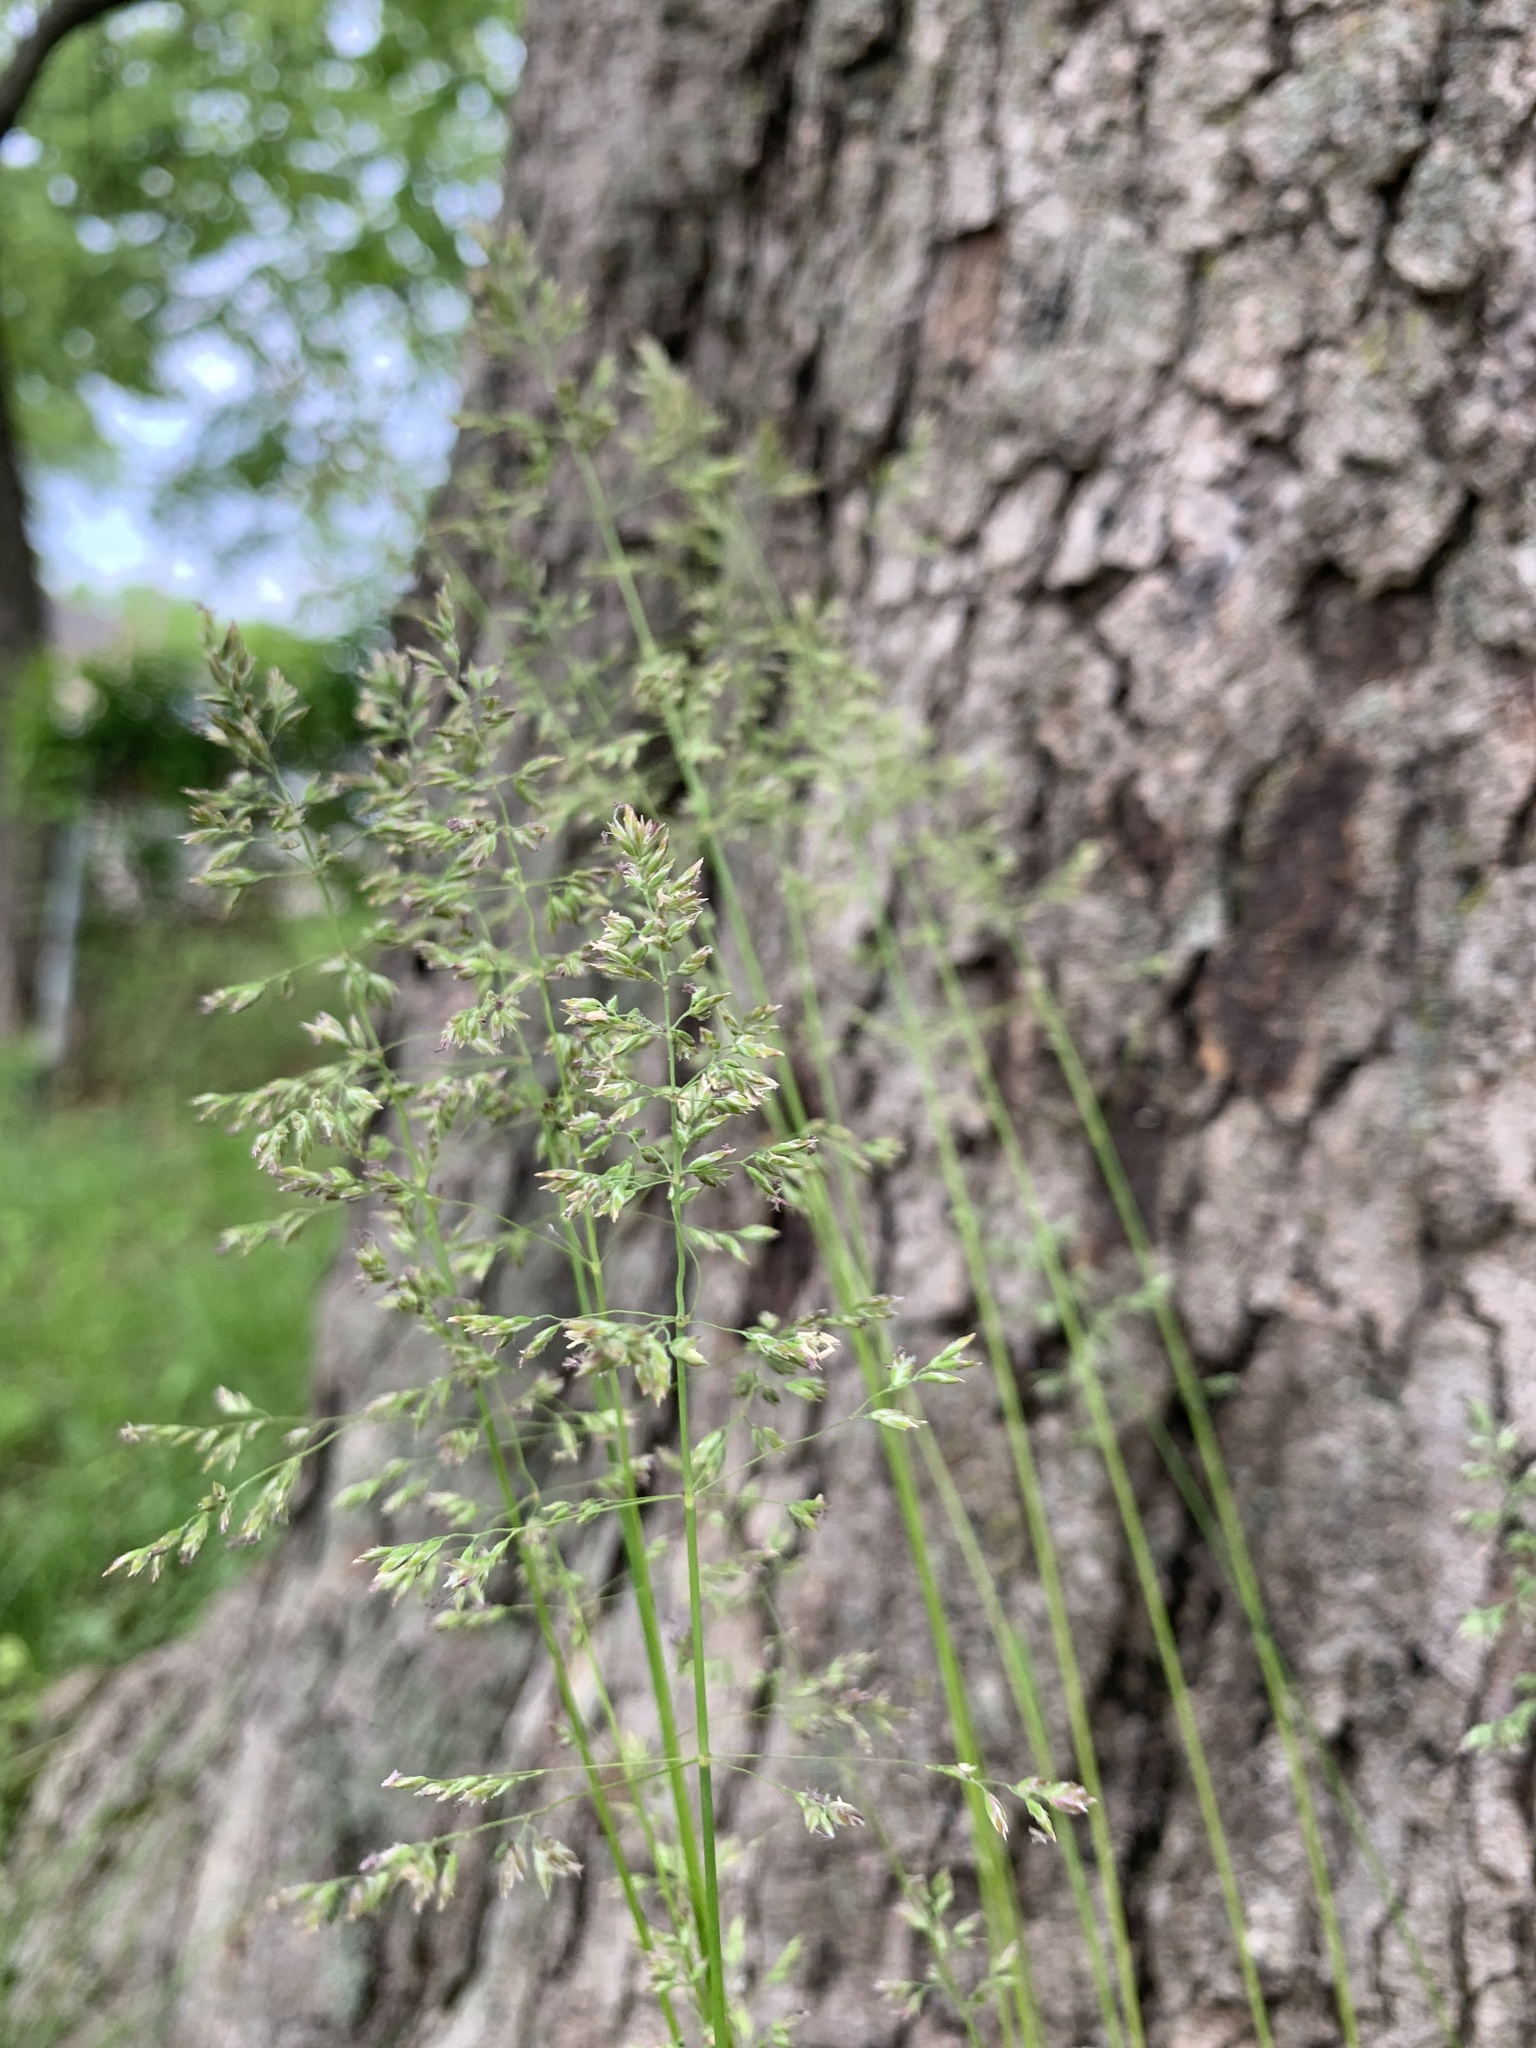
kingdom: Plantae
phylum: Tracheophyta
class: Liliopsida
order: Poales
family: Poaceae
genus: Poa
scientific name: Poa pratensis
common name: Kentucky bluegrass
